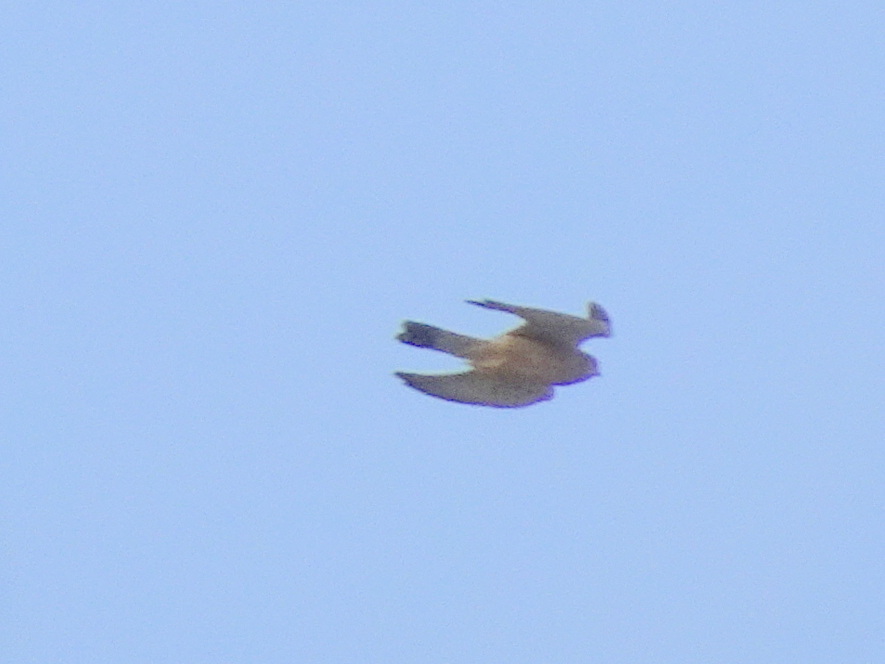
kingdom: Animalia
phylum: Chordata
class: Aves
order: Falconiformes
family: Falconidae
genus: Falco
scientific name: Falco tinnunculus
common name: Common kestrel
